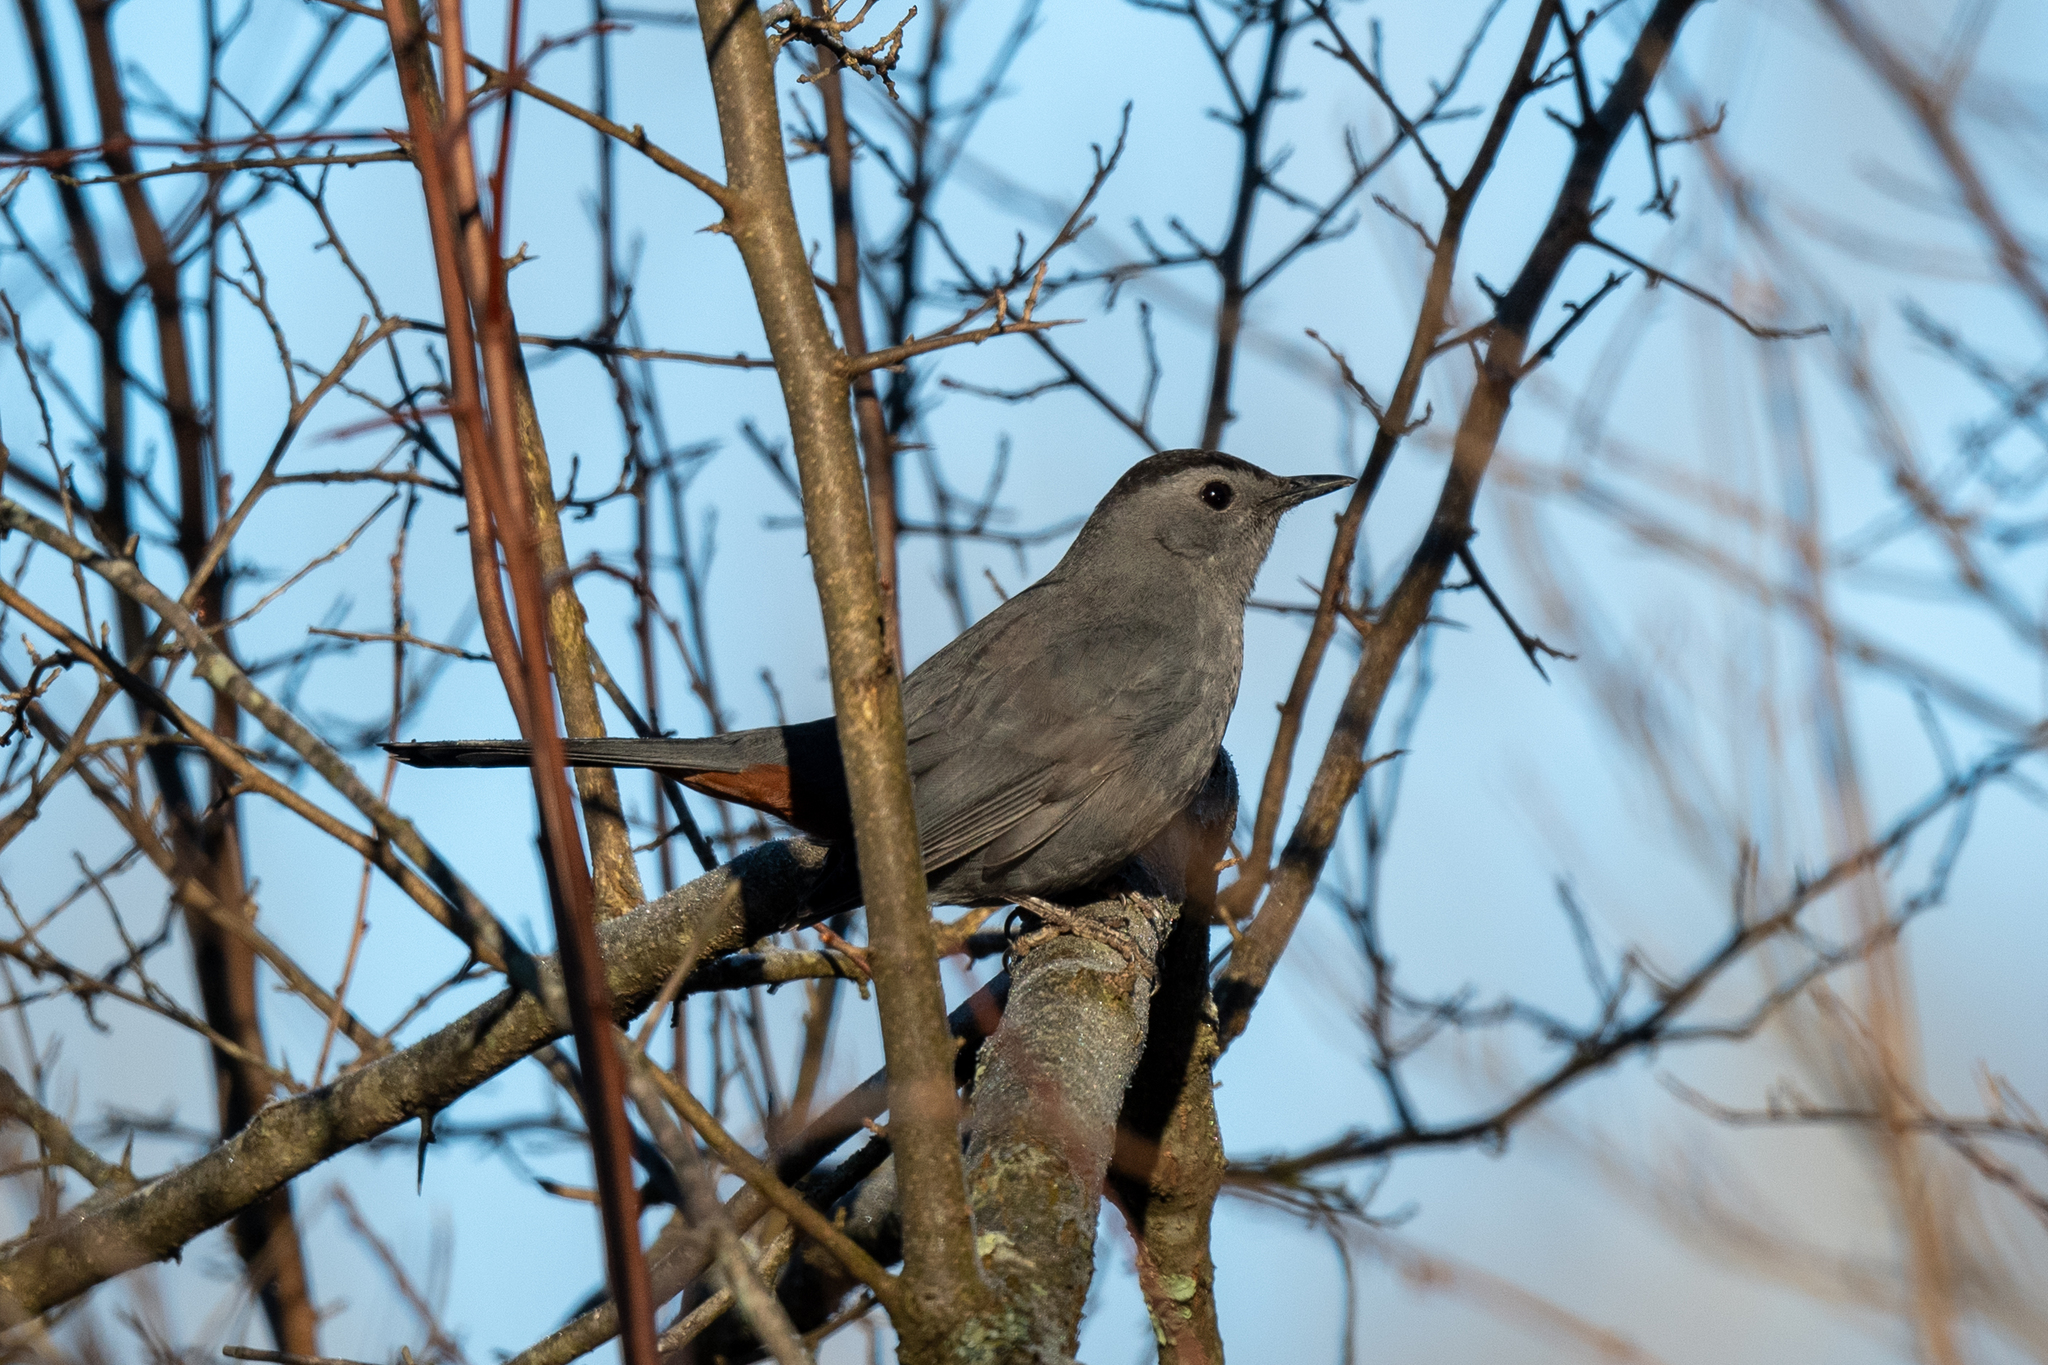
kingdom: Animalia
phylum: Chordata
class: Aves
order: Passeriformes
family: Mimidae
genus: Dumetella
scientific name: Dumetella carolinensis
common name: Gray catbird
